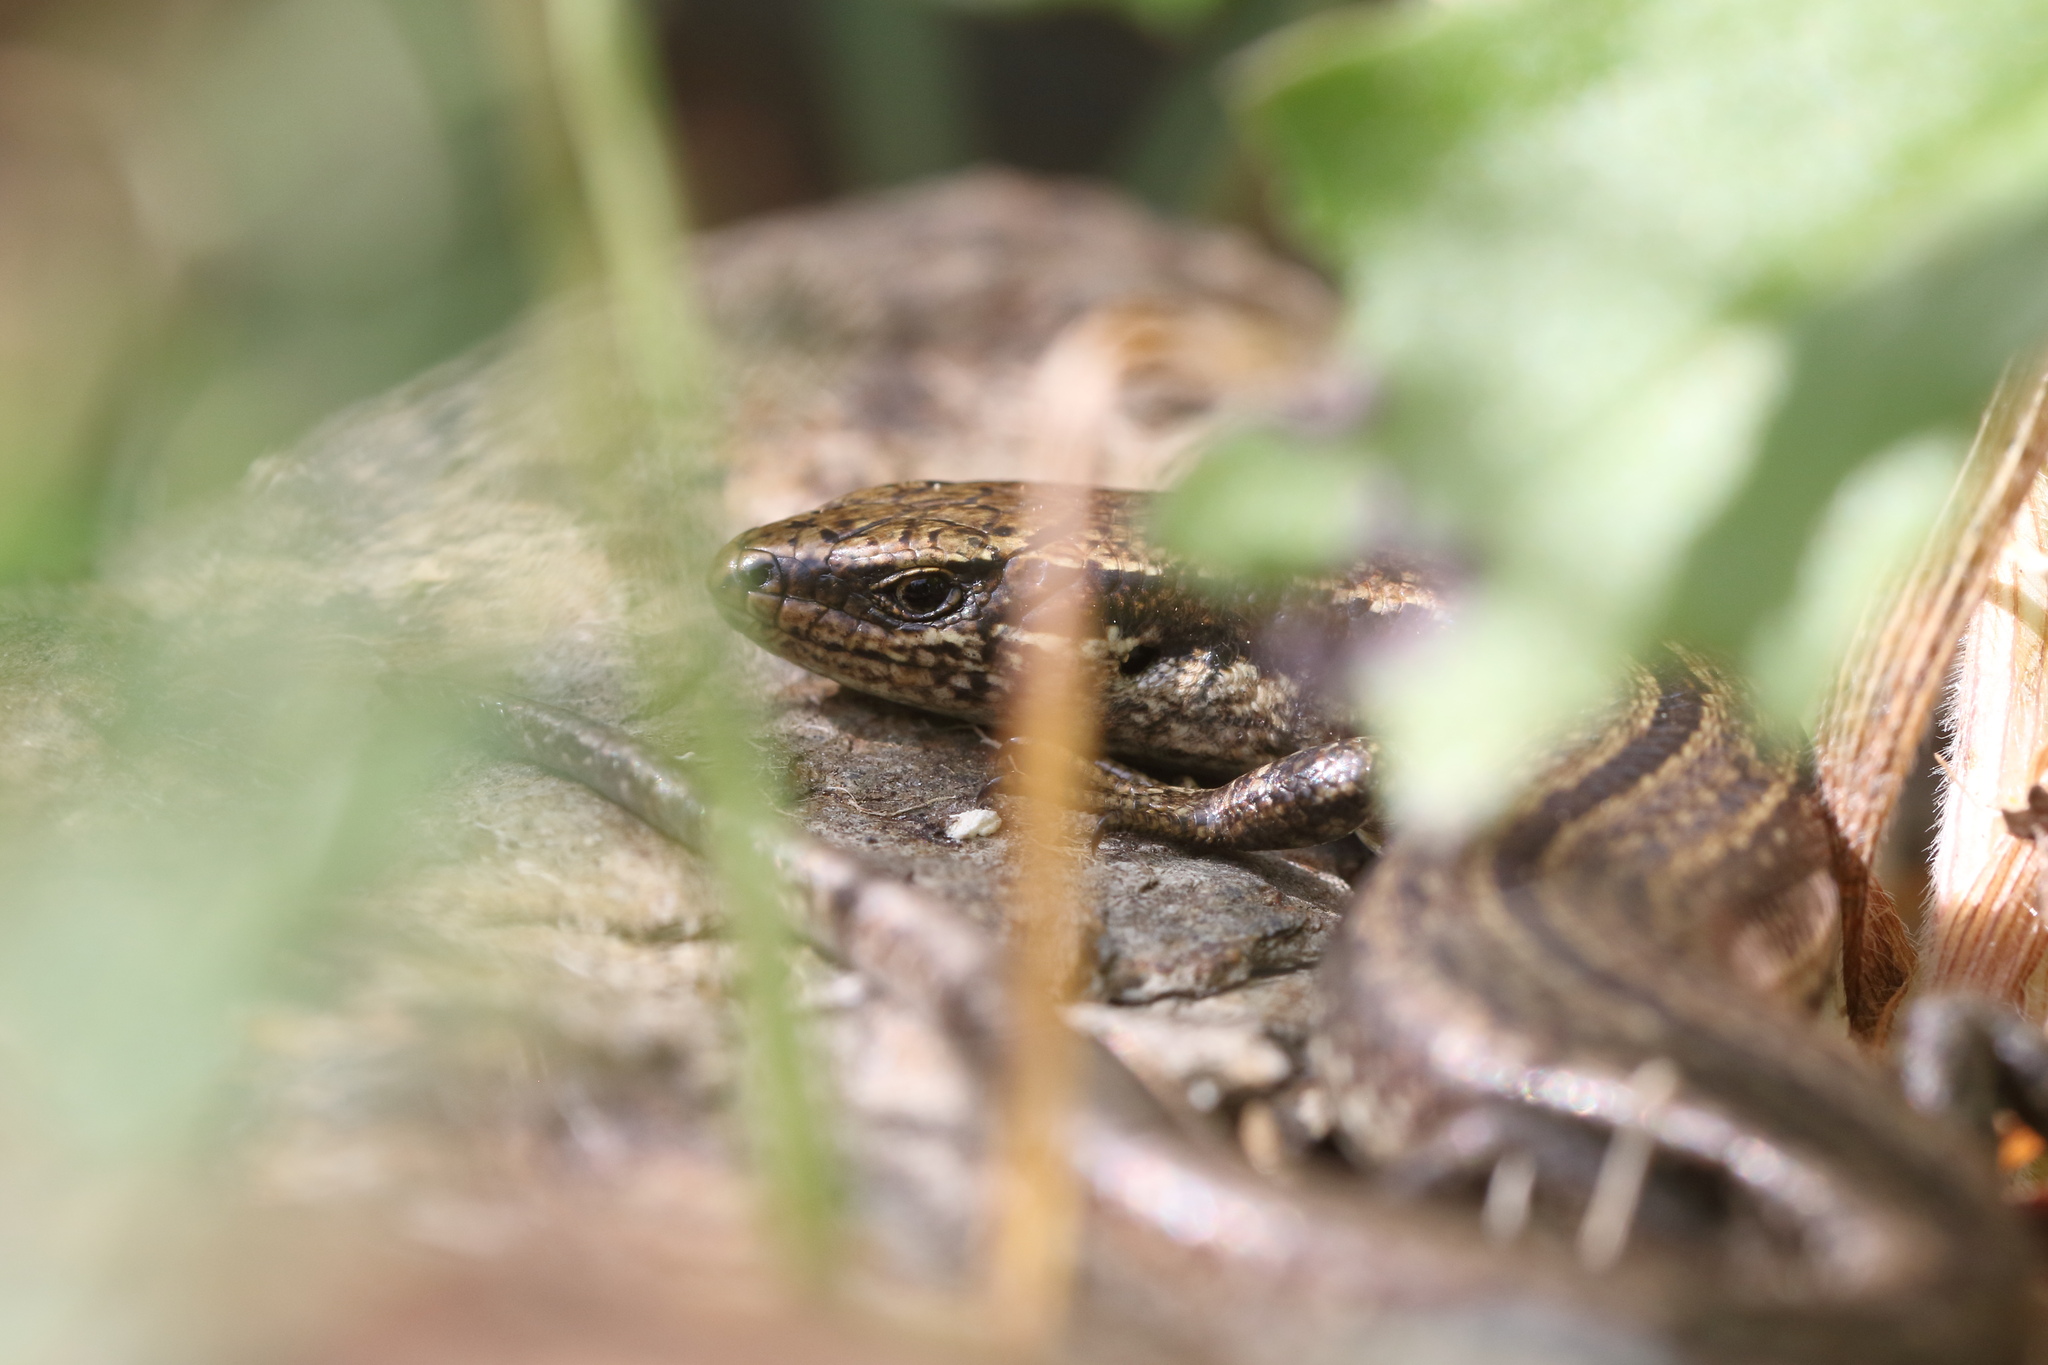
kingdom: Animalia
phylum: Chordata
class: Squamata
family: Scincidae
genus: Oligosoma
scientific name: Oligosoma polychroma
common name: Common new zealand skink
